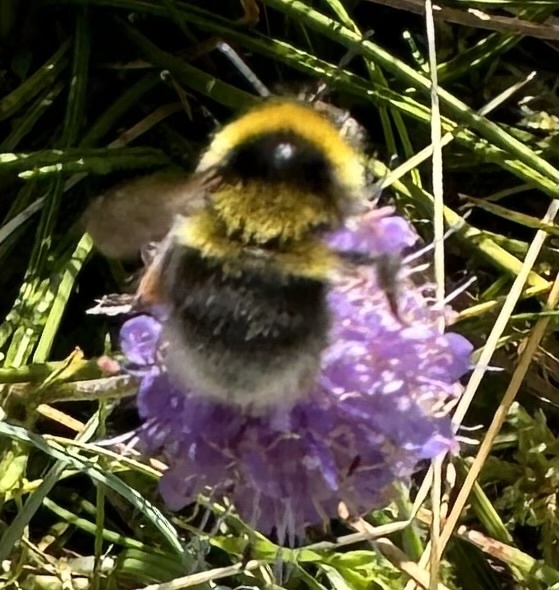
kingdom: Animalia
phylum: Arthropoda
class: Insecta
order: Hymenoptera
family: Apidae
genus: Bombus
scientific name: Bombus jonellus
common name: Heath humble-bee
